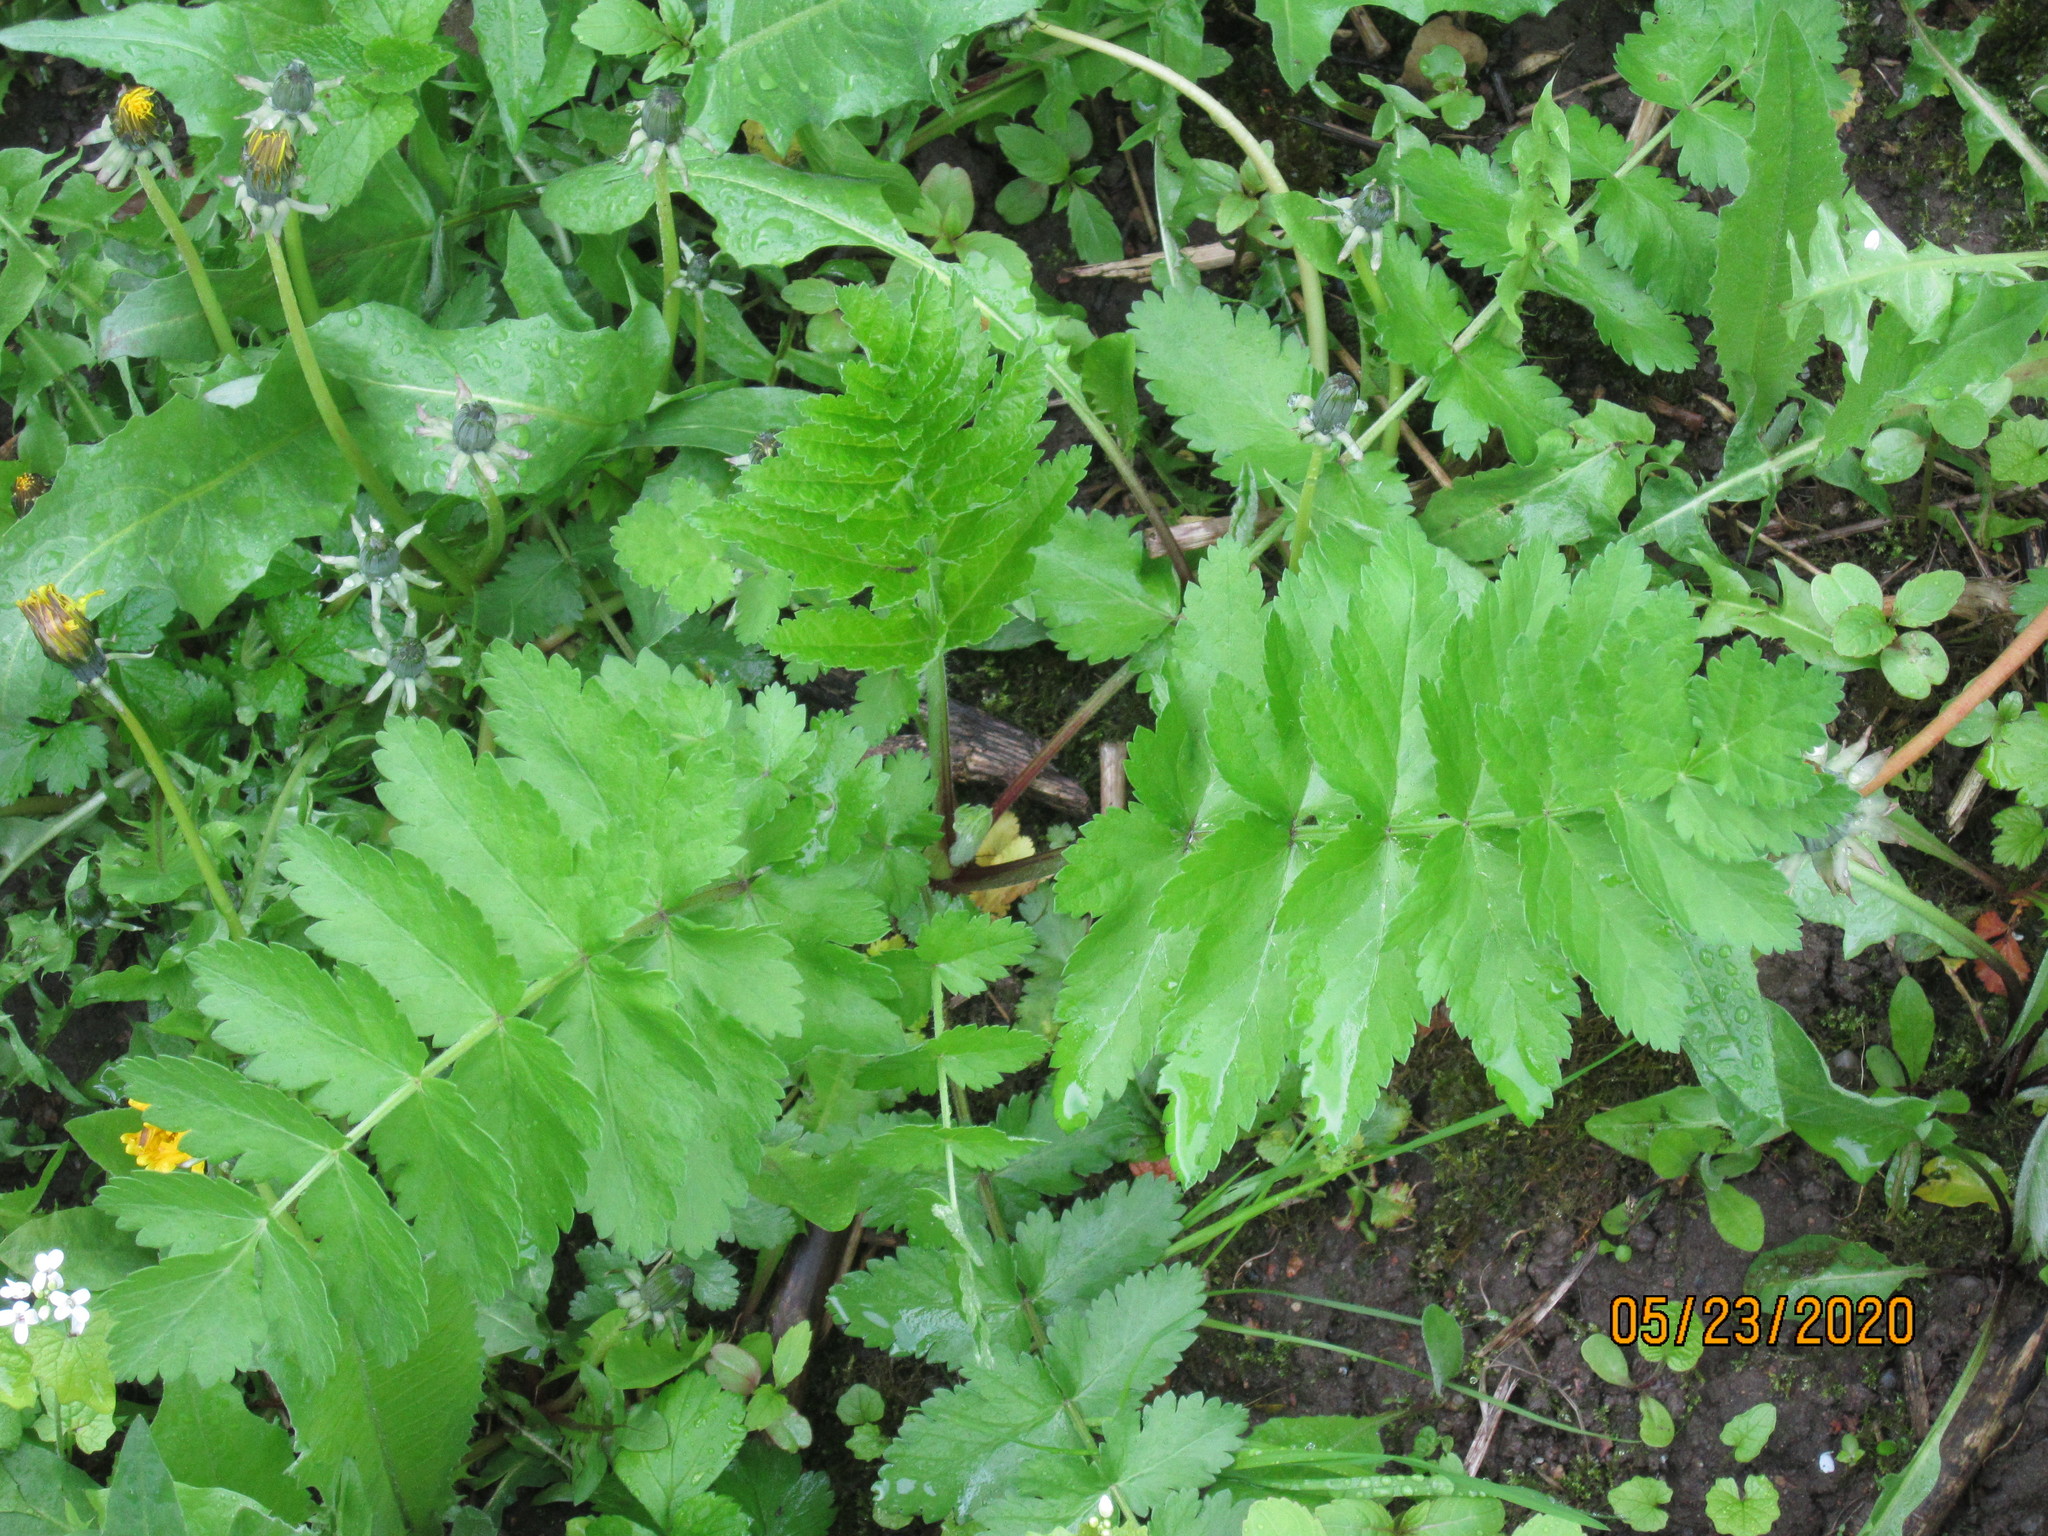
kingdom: Plantae
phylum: Tracheophyta
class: Magnoliopsida
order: Apiales
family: Apiaceae
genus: Pastinaca
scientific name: Pastinaca sativa
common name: Wild parsnip
